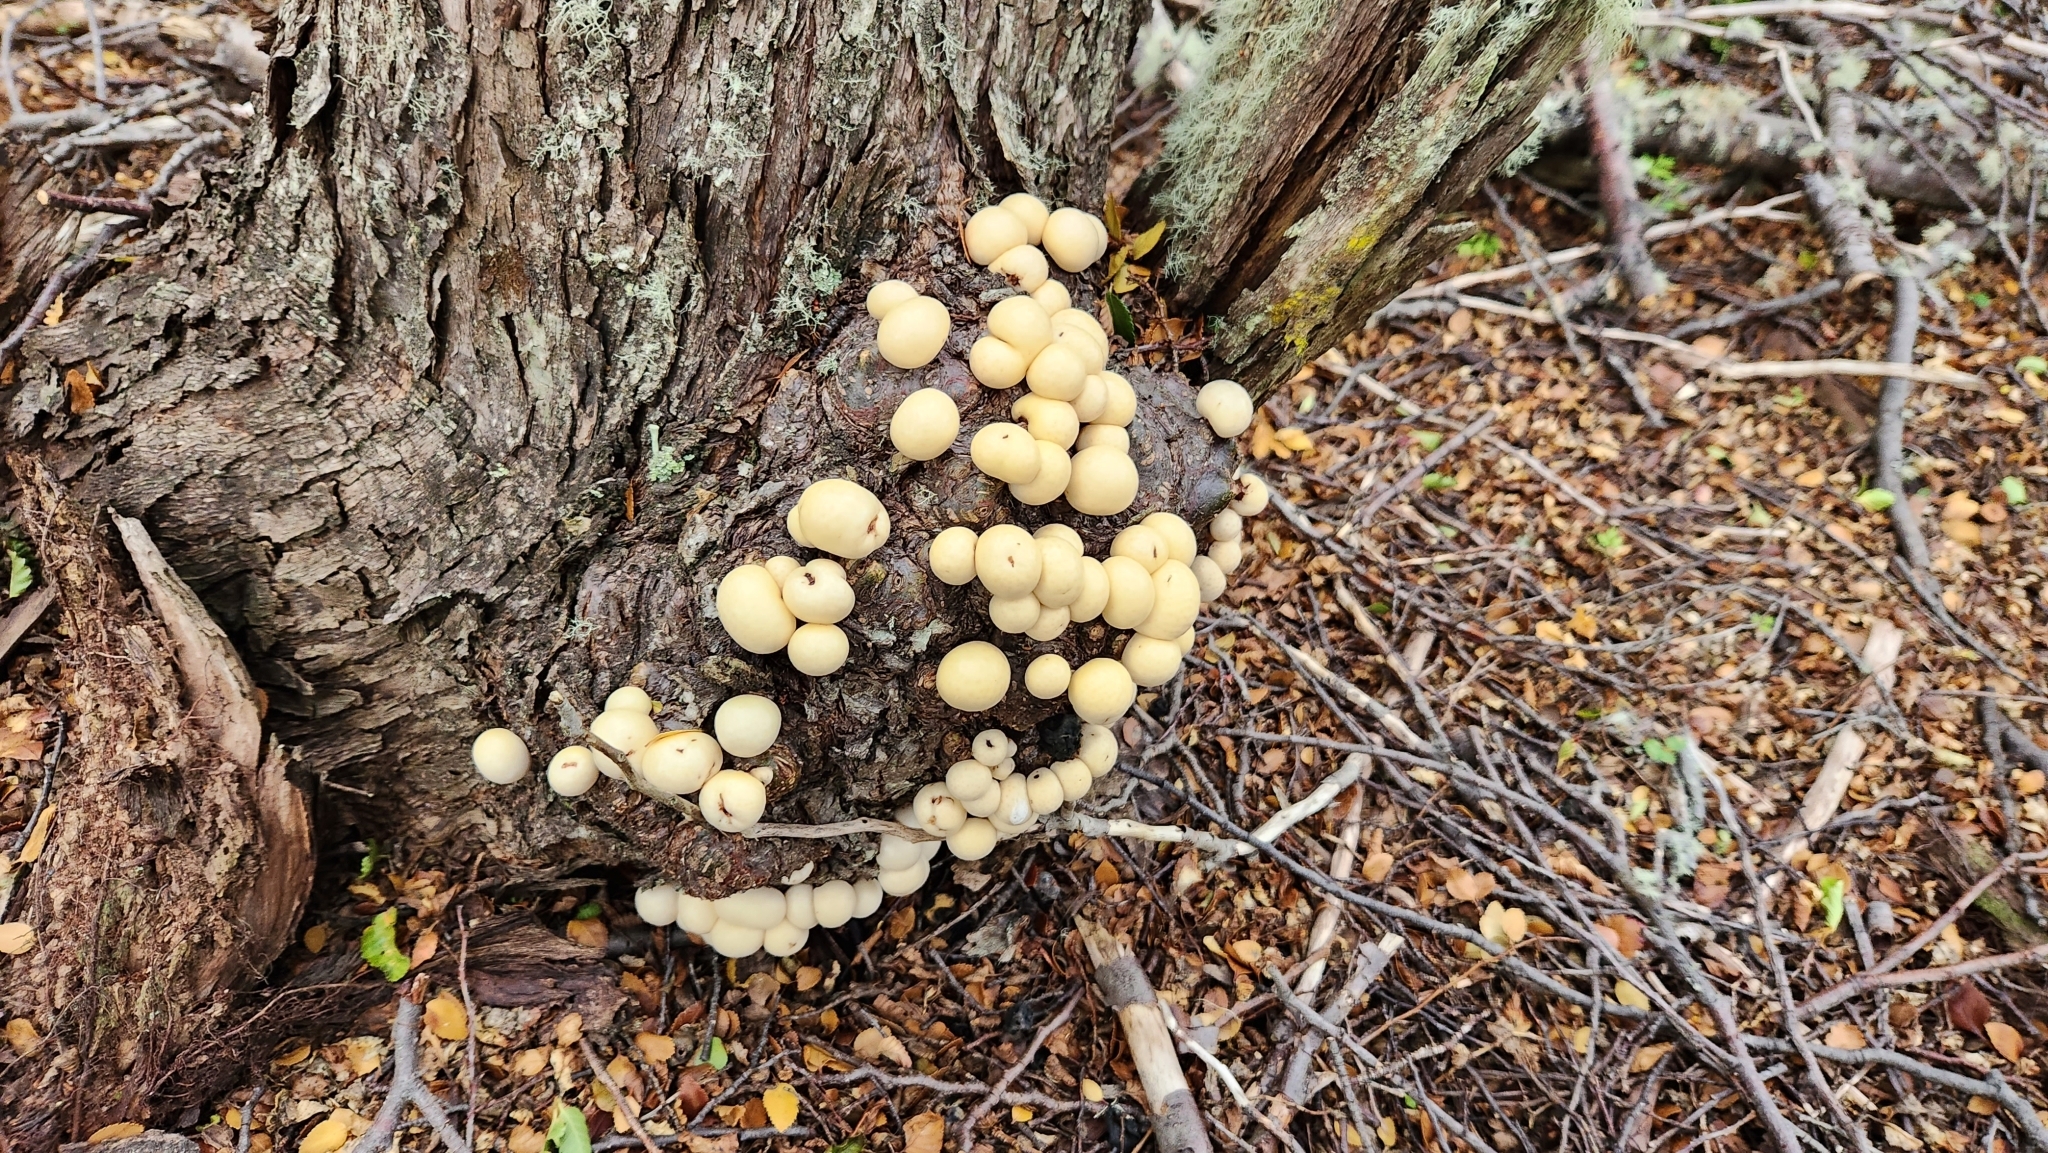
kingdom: Fungi
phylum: Ascomycota
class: Leotiomycetes
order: Cyttariales
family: Cyttariaceae
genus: Cyttaria
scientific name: Cyttaria darwinii
